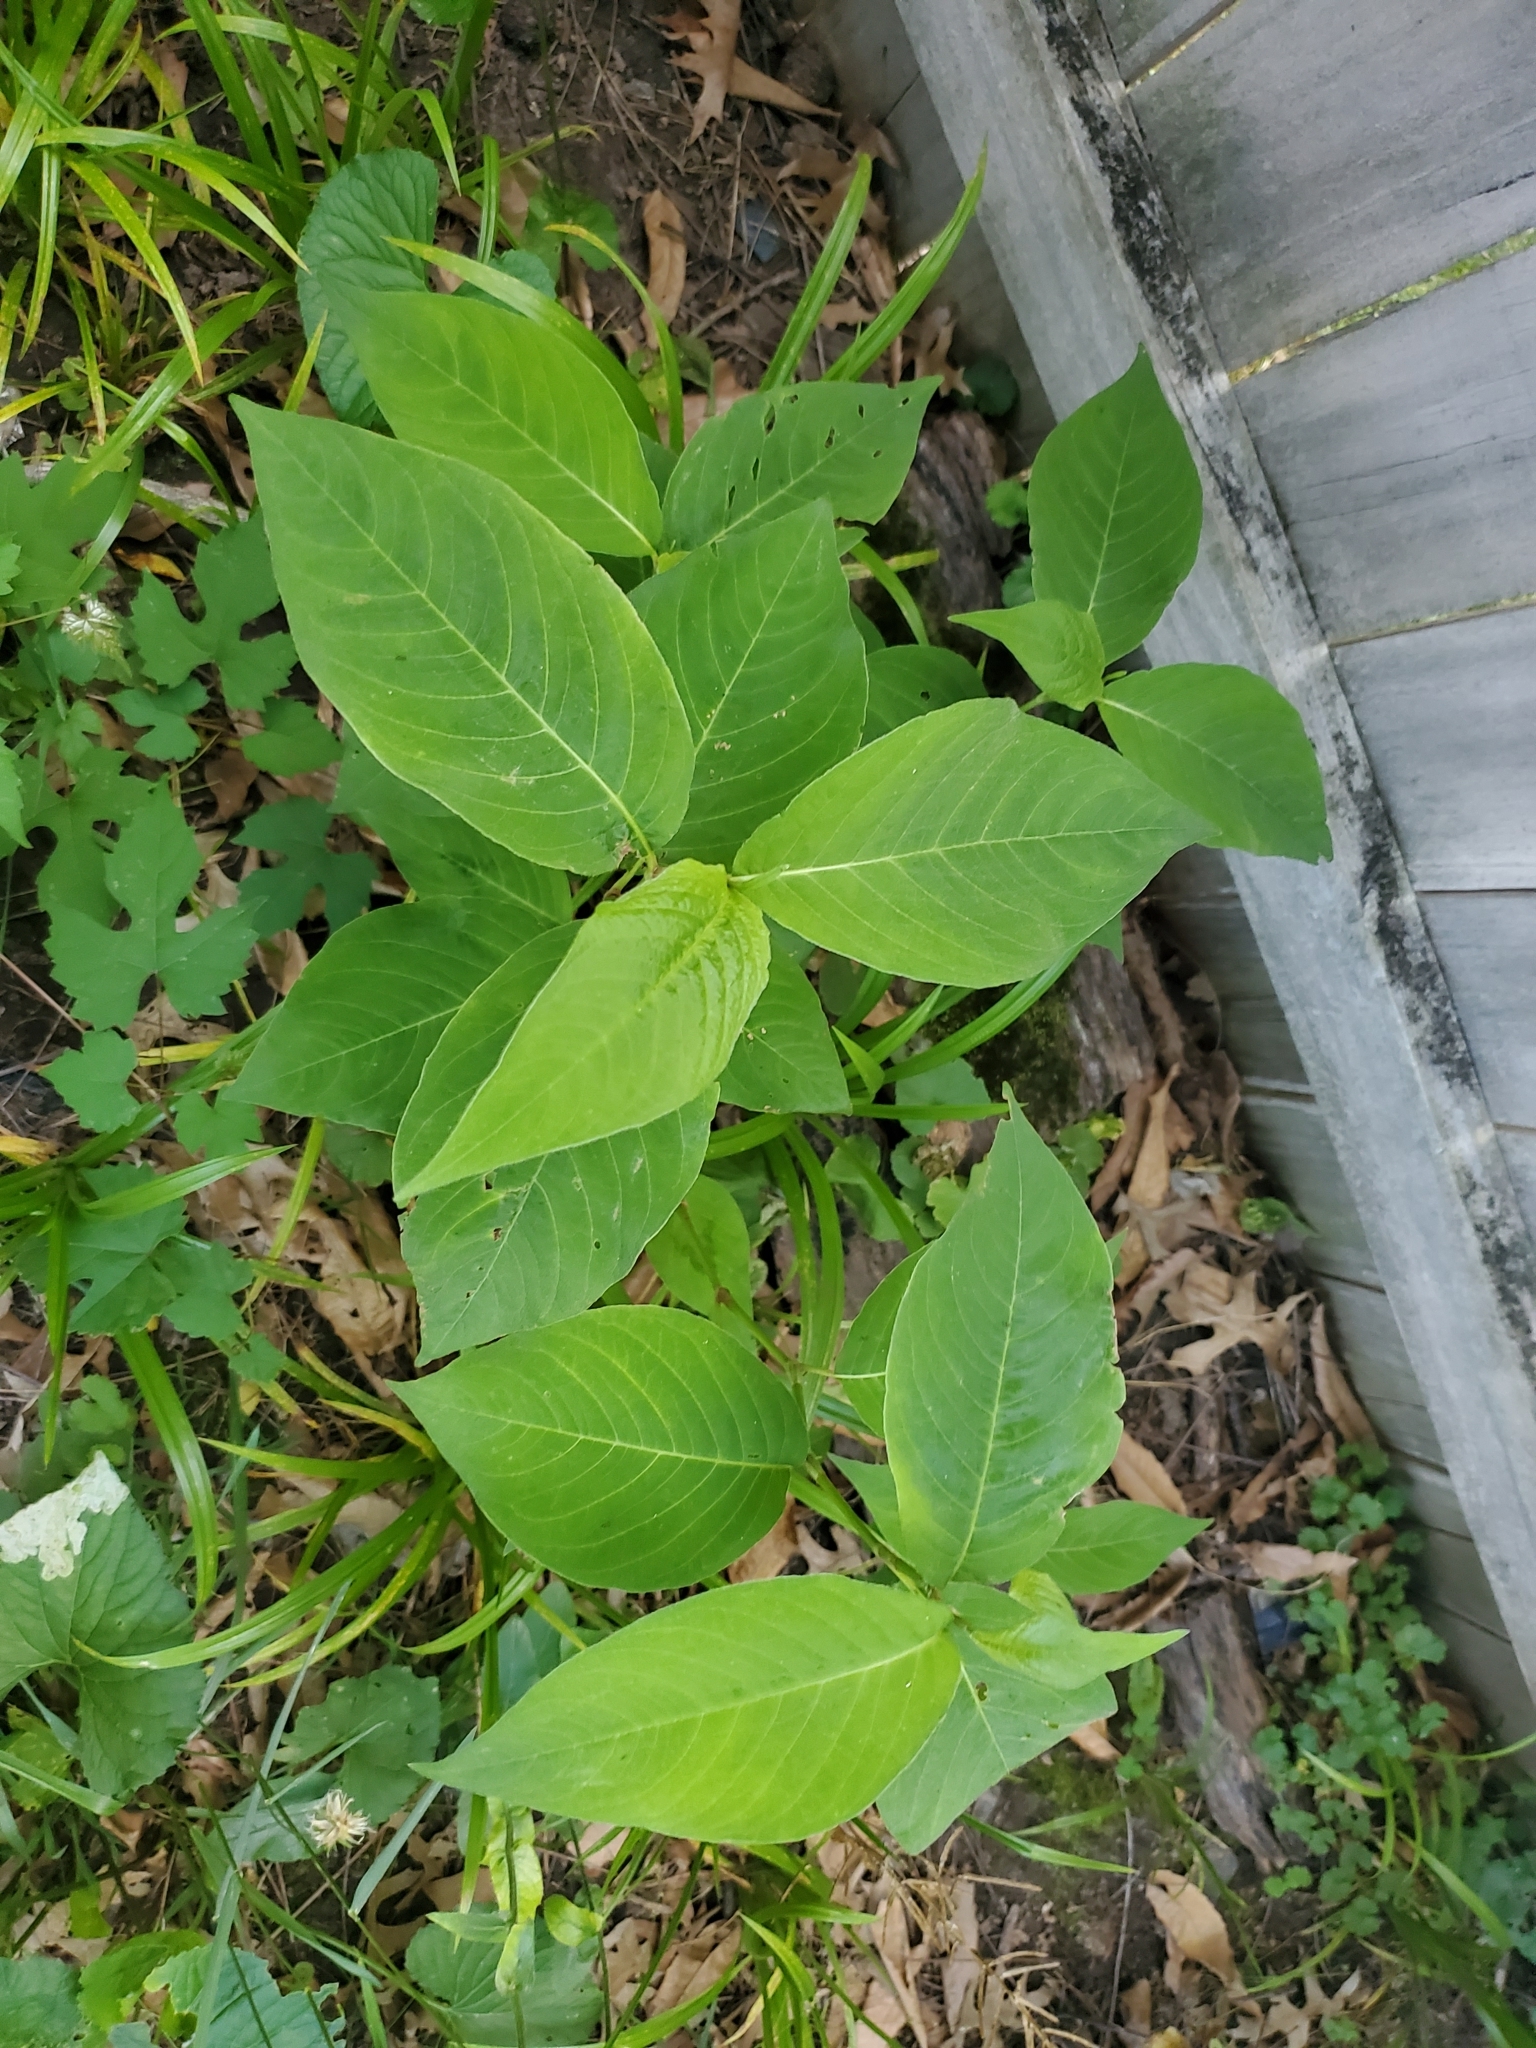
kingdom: Plantae
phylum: Tracheophyta
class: Magnoliopsida
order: Caryophyllales
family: Polygonaceae
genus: Persicaria
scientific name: Persicaria virginiana
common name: Jumpseed
